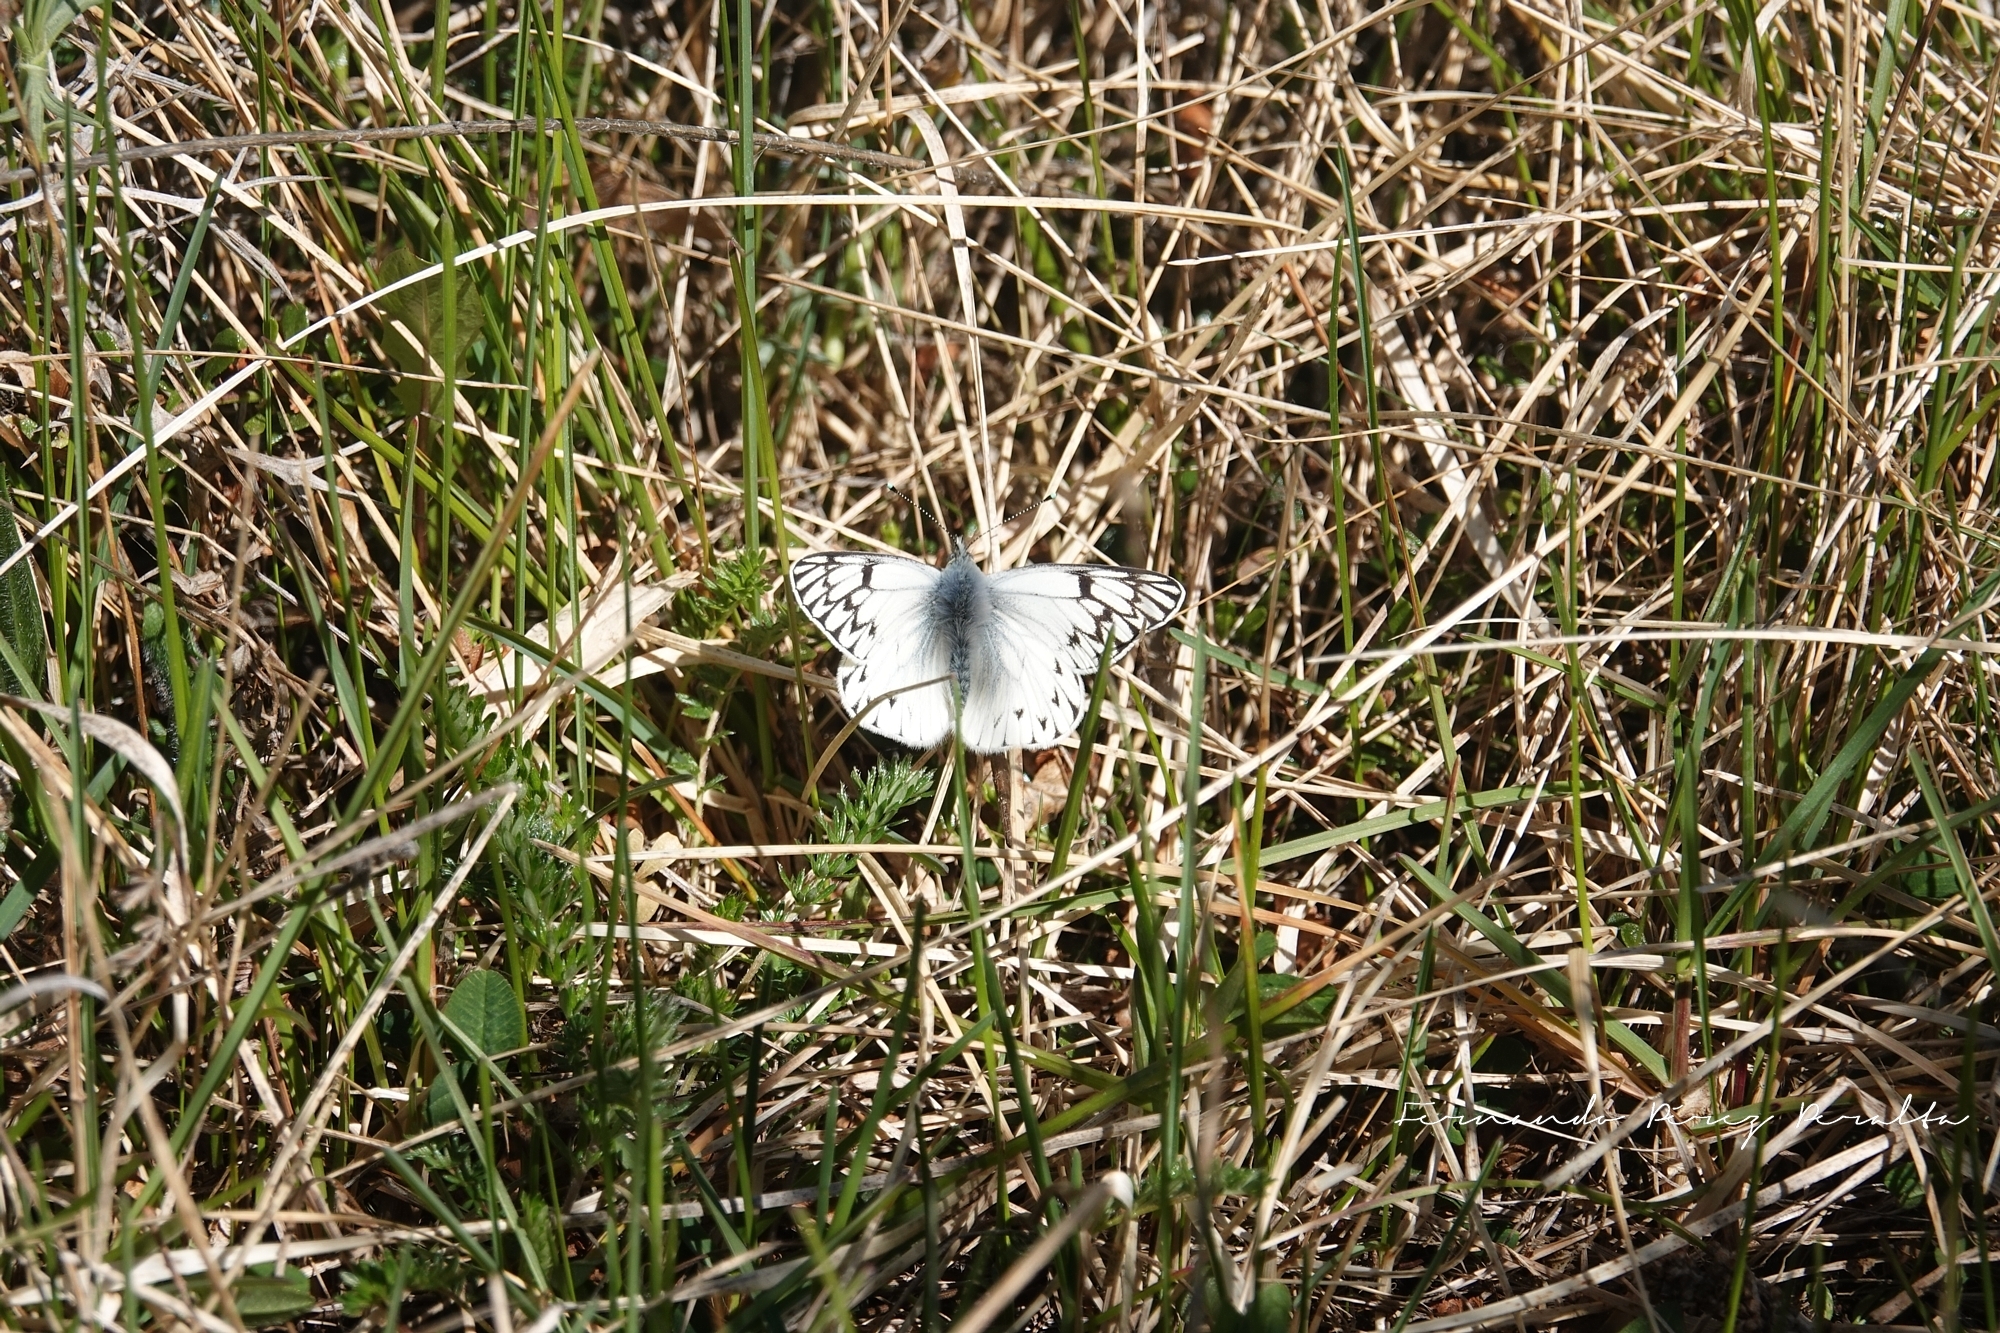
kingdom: Animalia
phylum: Arthropoda
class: Insecta
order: Lepidoptera
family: Pieridae
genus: Tatochila
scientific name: Tatochila theodice
